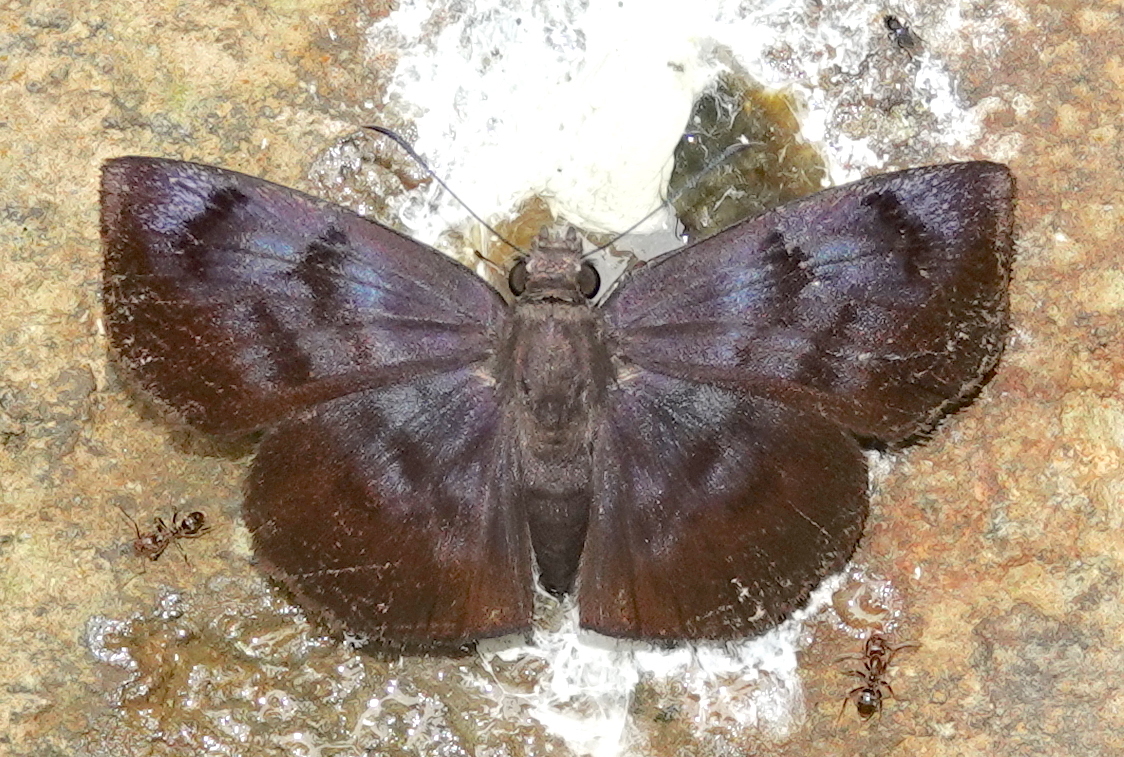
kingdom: Animalia
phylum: Arthropoda
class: Insecta
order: Lepidoptera
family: Hesperiidae
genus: Ebrietas
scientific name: Ebrietas anacreon
